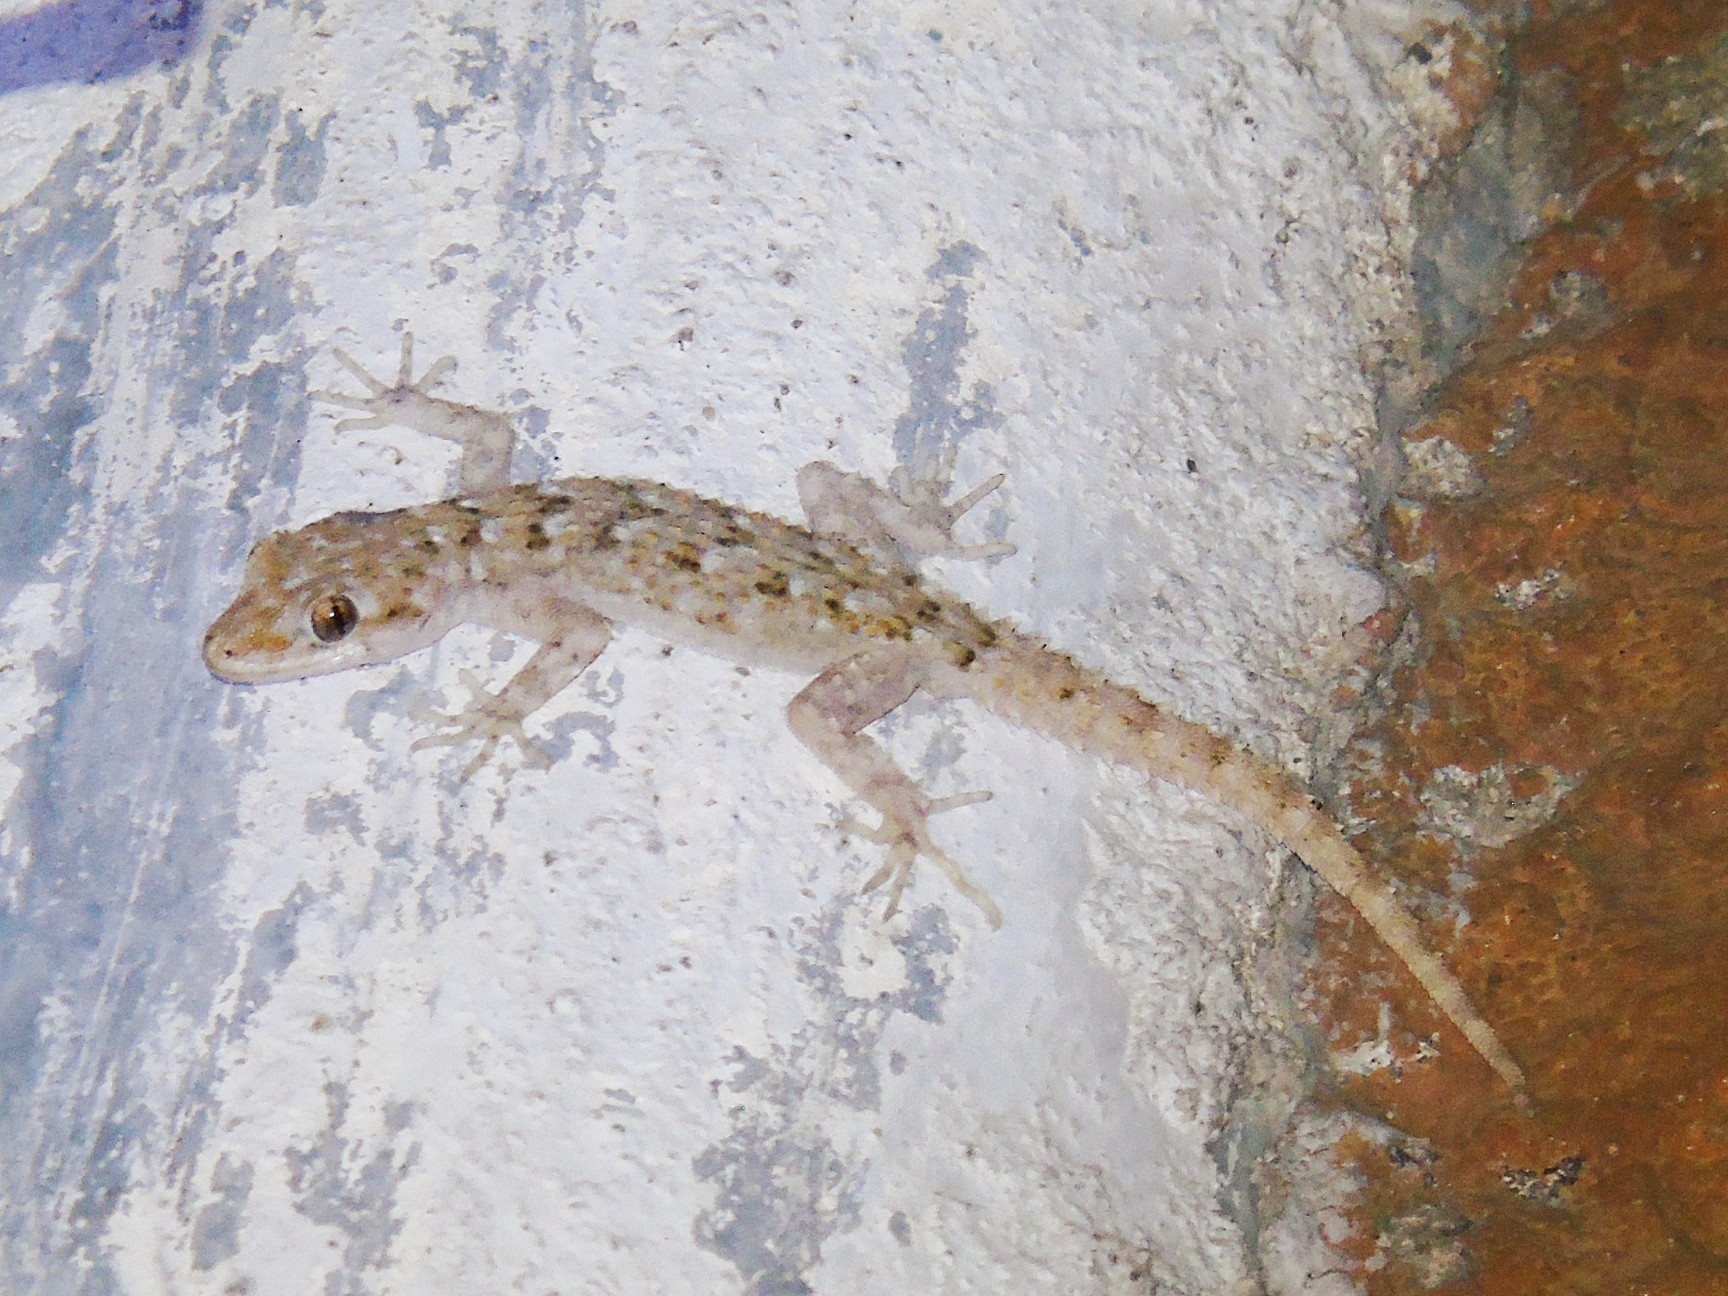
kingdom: Animalia
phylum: Chordata
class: Squamata
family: Gekkonidae
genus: Mediodactylus
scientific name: Mediodactylus kotschyi
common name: Kotschy's gecko
